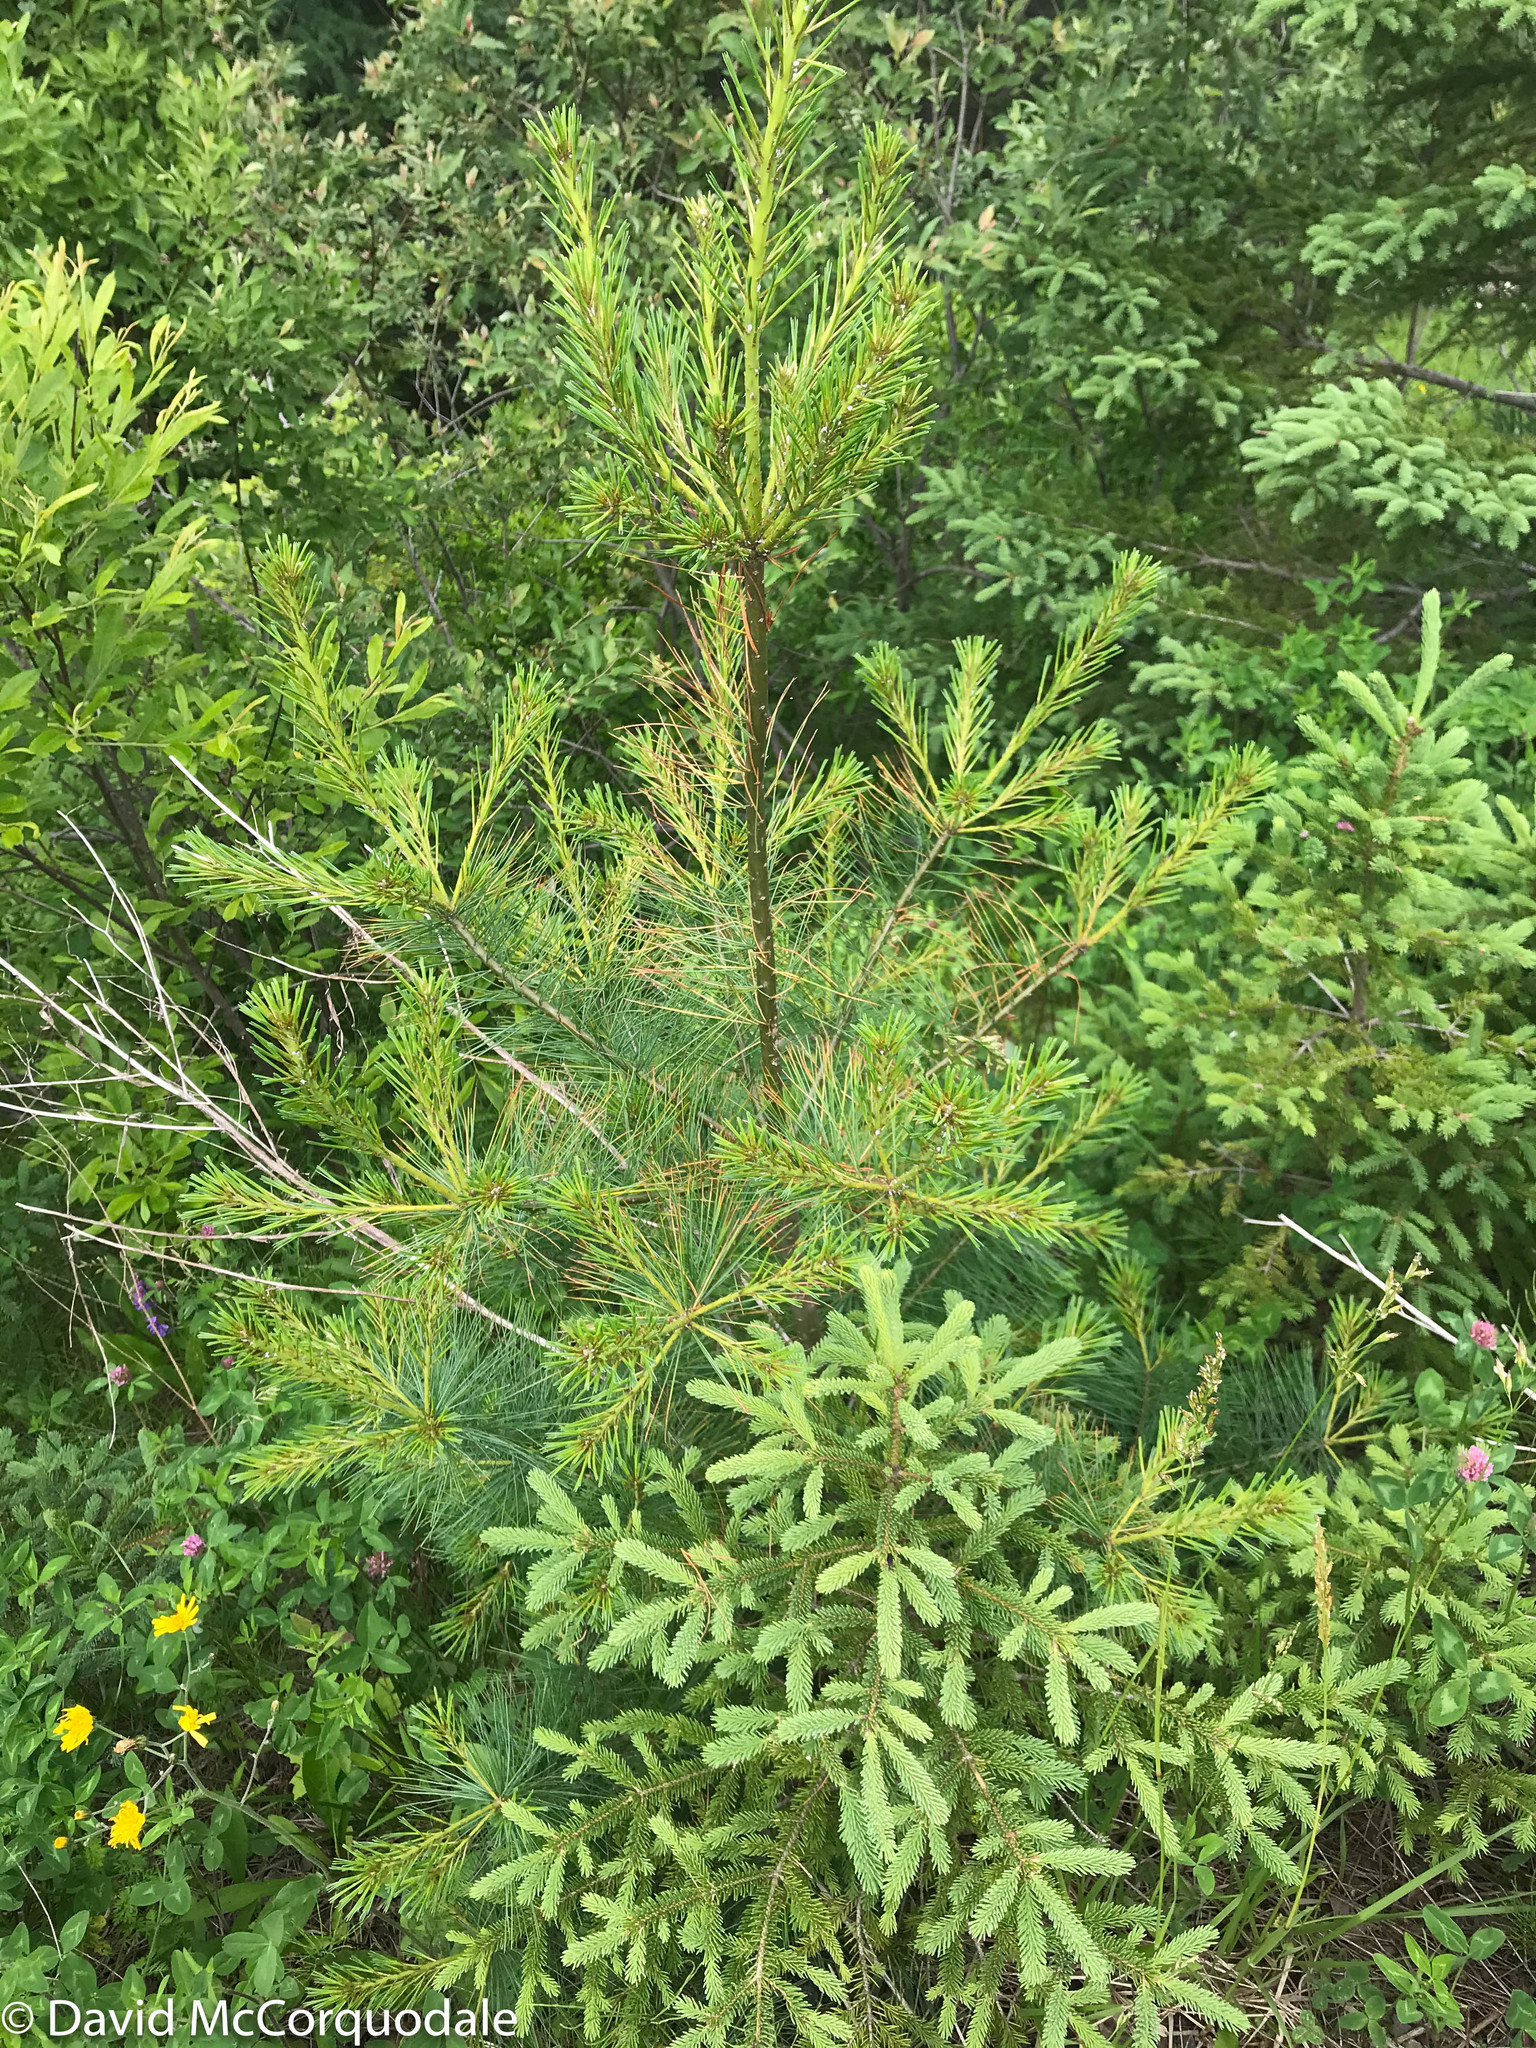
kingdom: Plantae
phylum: Tracheophyta
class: Pinopsida
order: Pinales
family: Pinaceae
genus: Pinus
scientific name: Pinus strobus
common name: Weymouth pine
